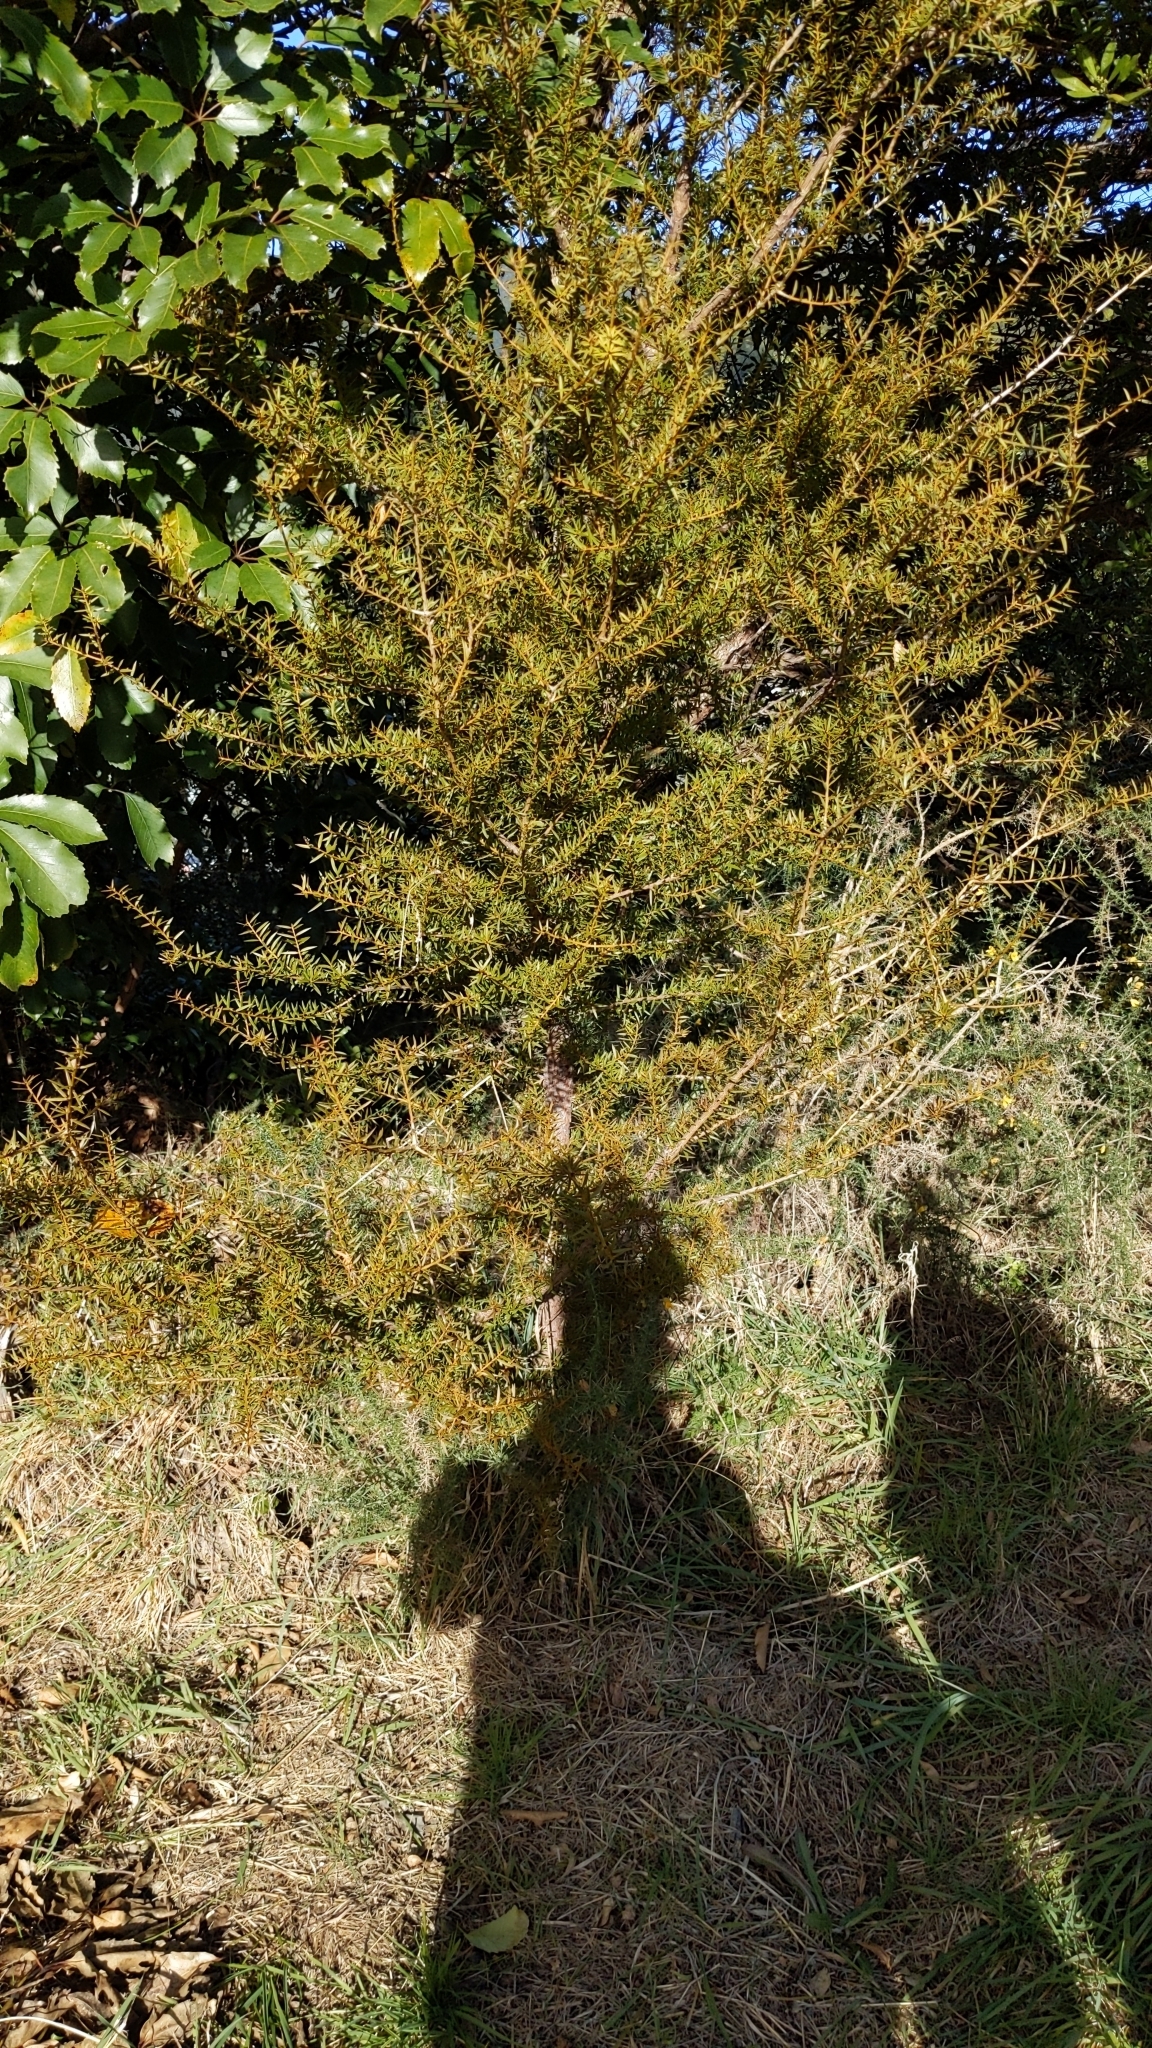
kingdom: Plantae
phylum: Tracheophyta
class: Pinopsida
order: Pinales
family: Podocarpaceae
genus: Podocarpus
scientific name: Podocarpus totara
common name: Totara
